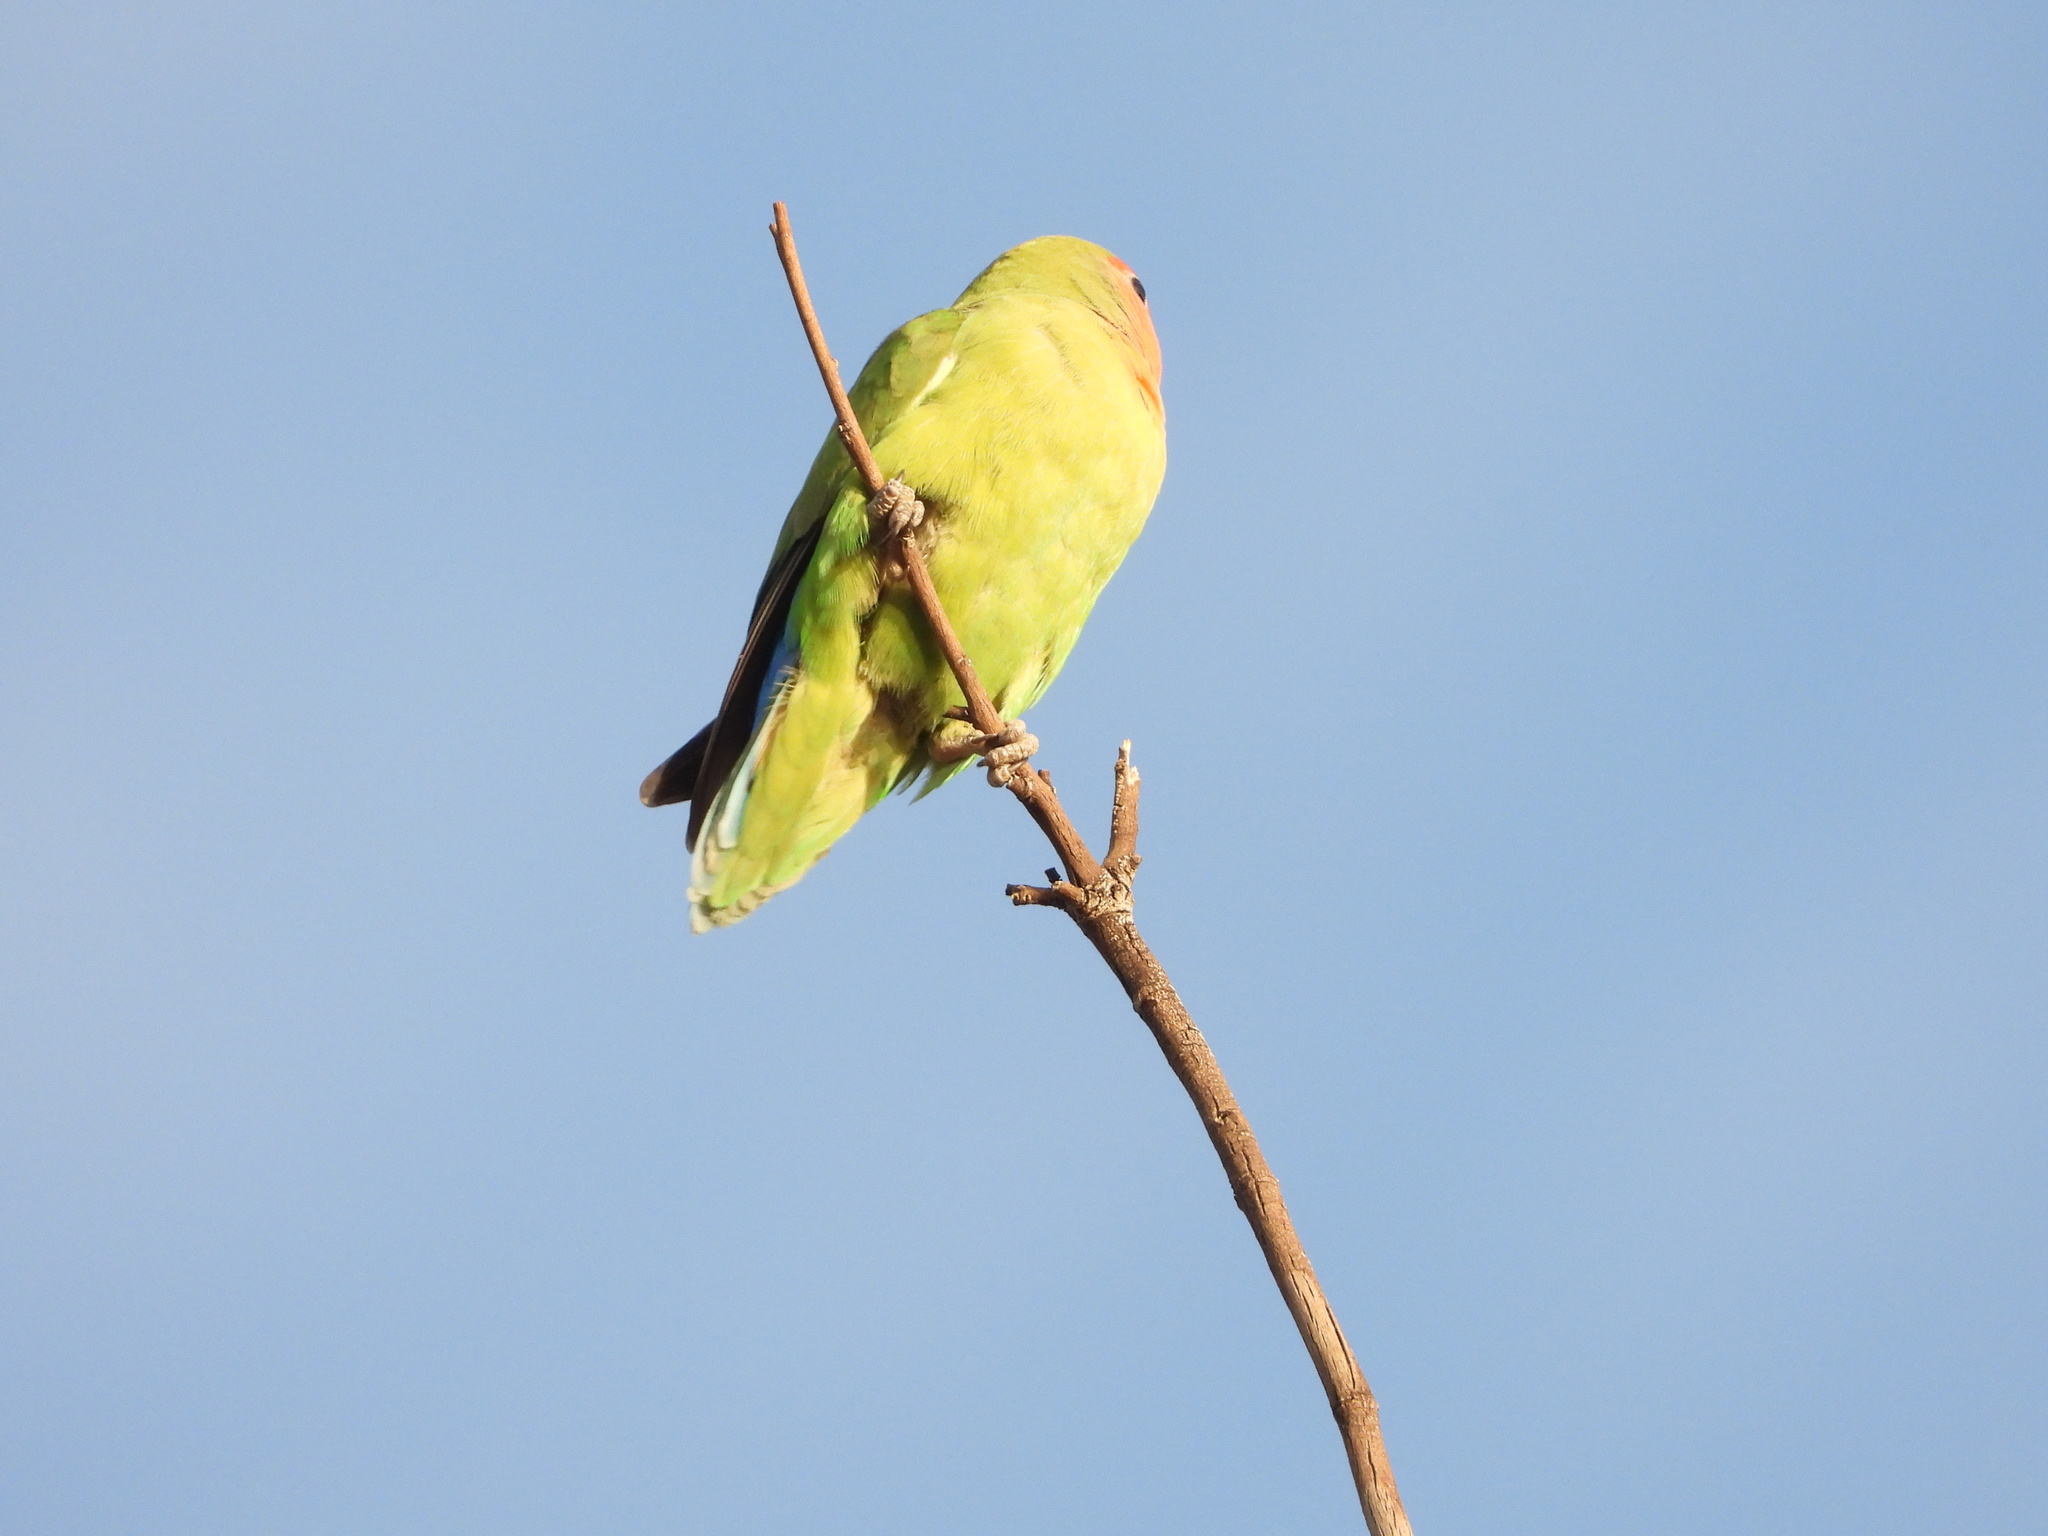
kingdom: Animalia
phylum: Chordata
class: Aves
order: Psittaciformes
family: Psittacidae
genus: Agapornis
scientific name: Agapornis roseicollis
